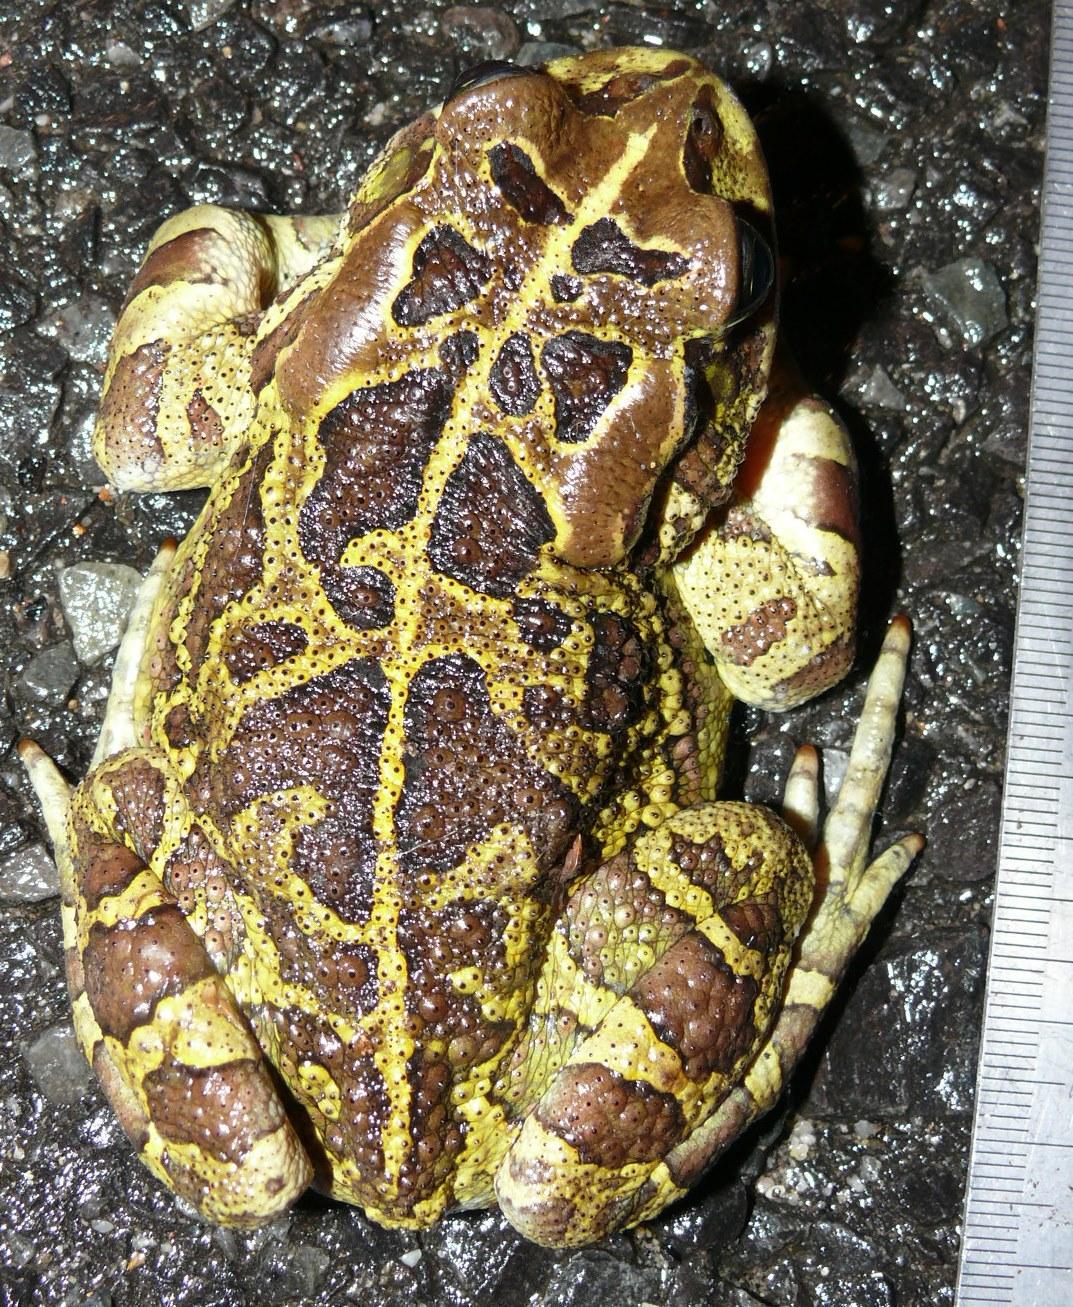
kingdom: Animalia
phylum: Chordata
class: Amphibia
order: Anura
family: Bufonidae
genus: Sclerophrys
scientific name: Sclerophrys pantherina
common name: Panther toad
